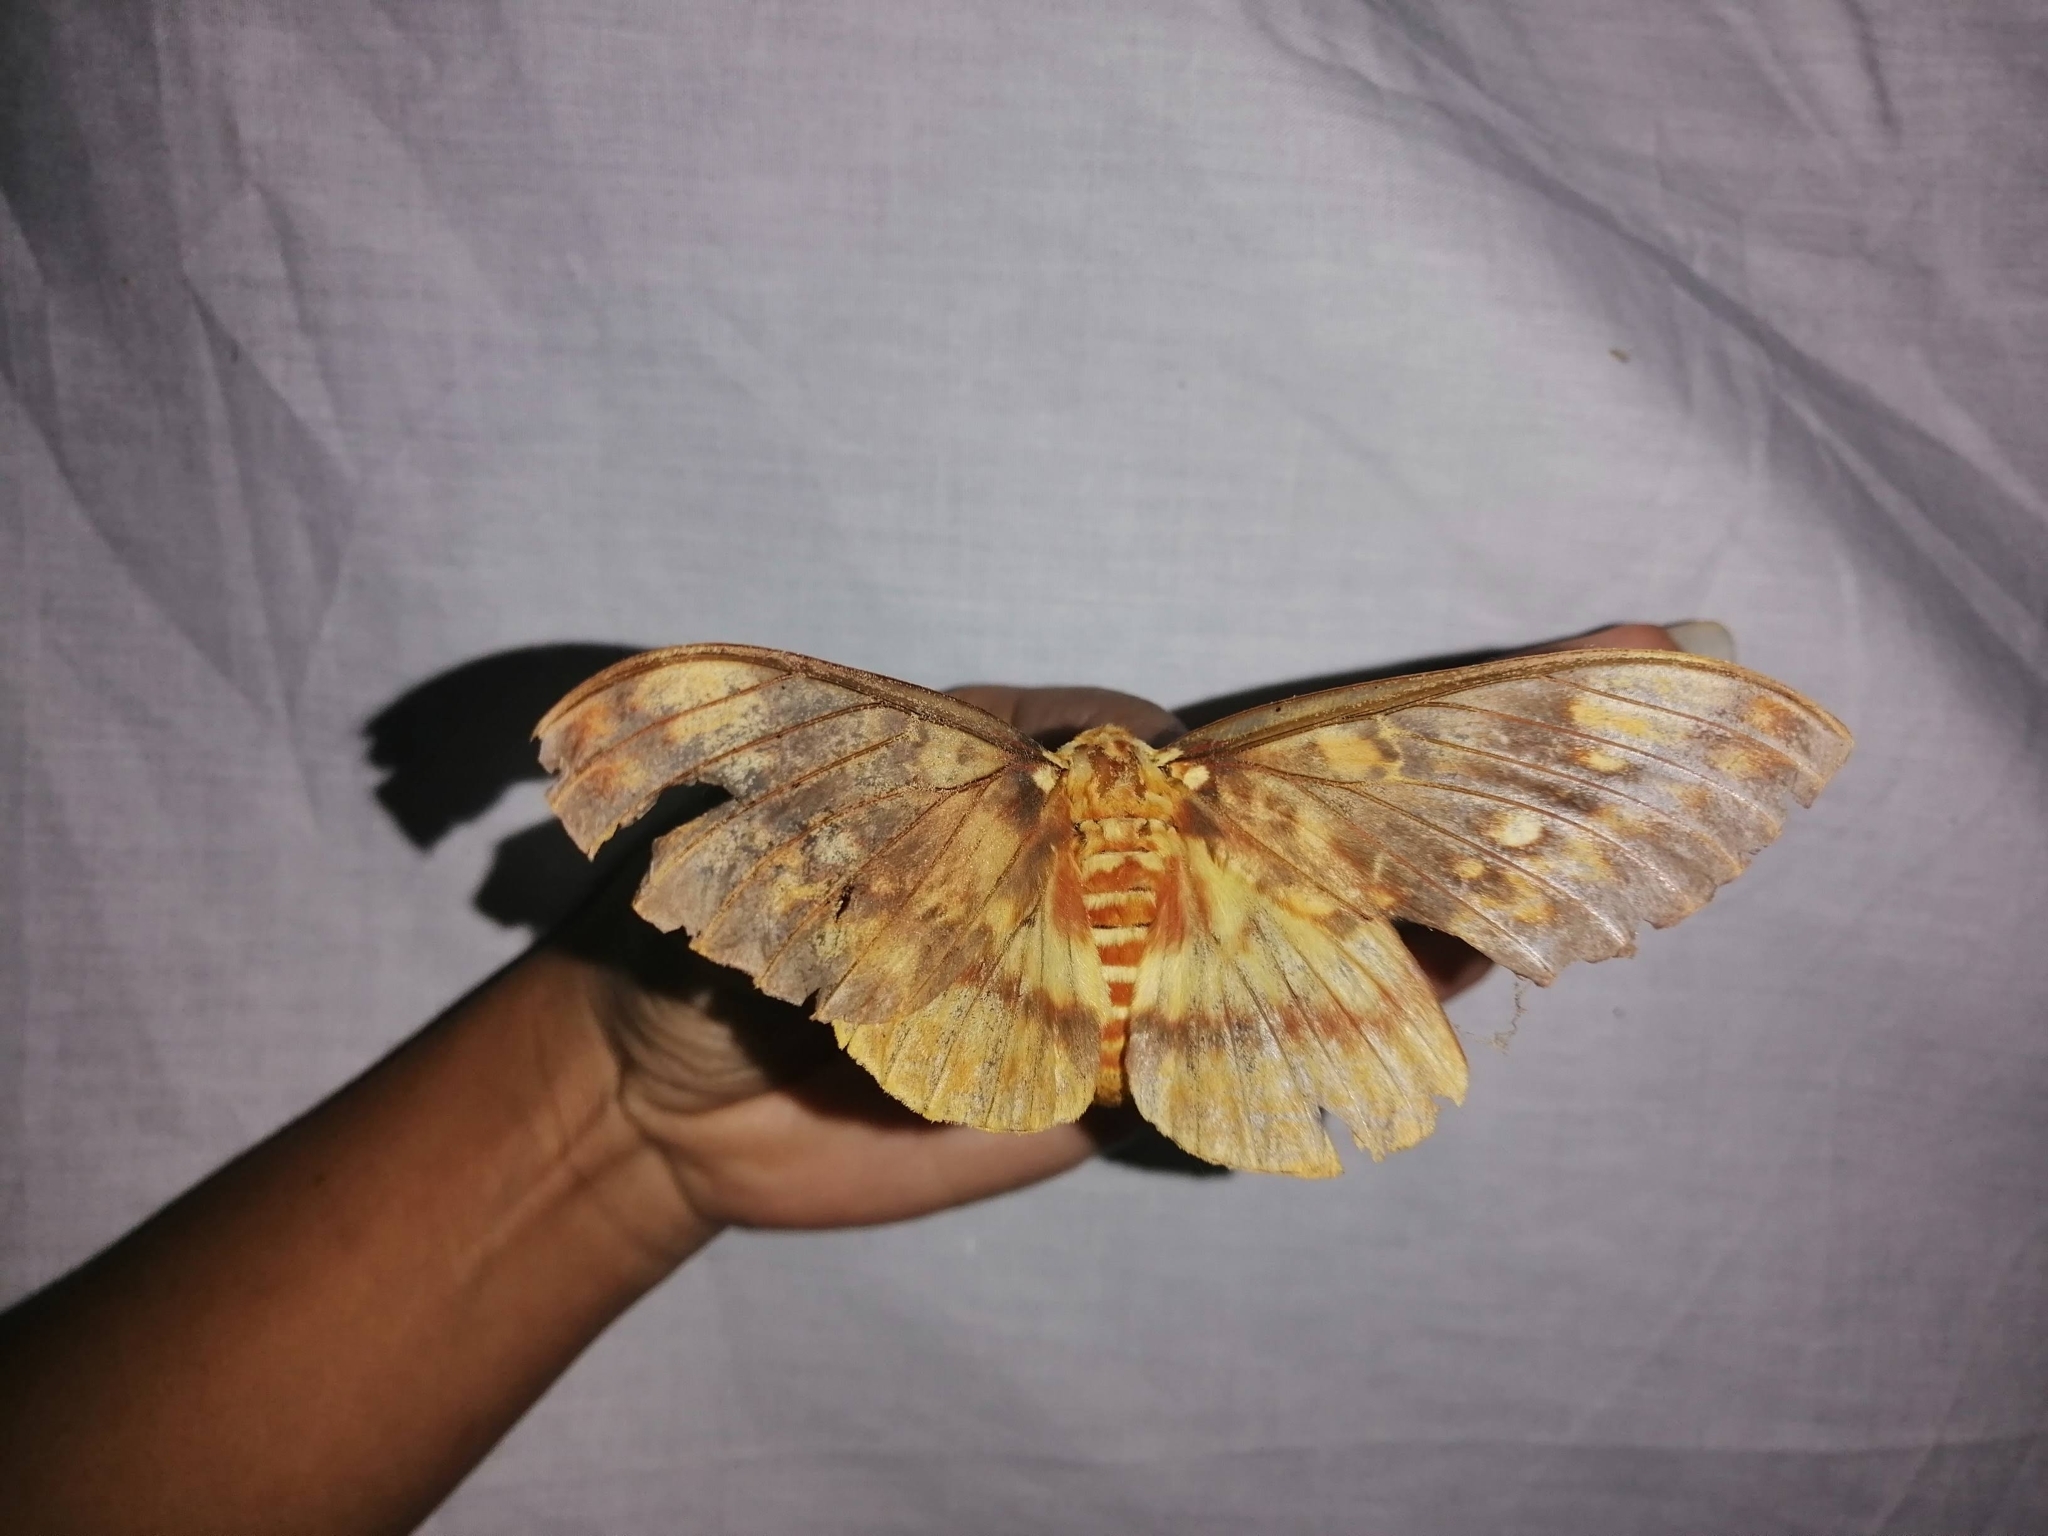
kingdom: Animalia
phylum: Arthropoda
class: Insecta
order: Lepidoptera
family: Saturniidae
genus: Citheronia
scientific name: Citheronia lobesis
